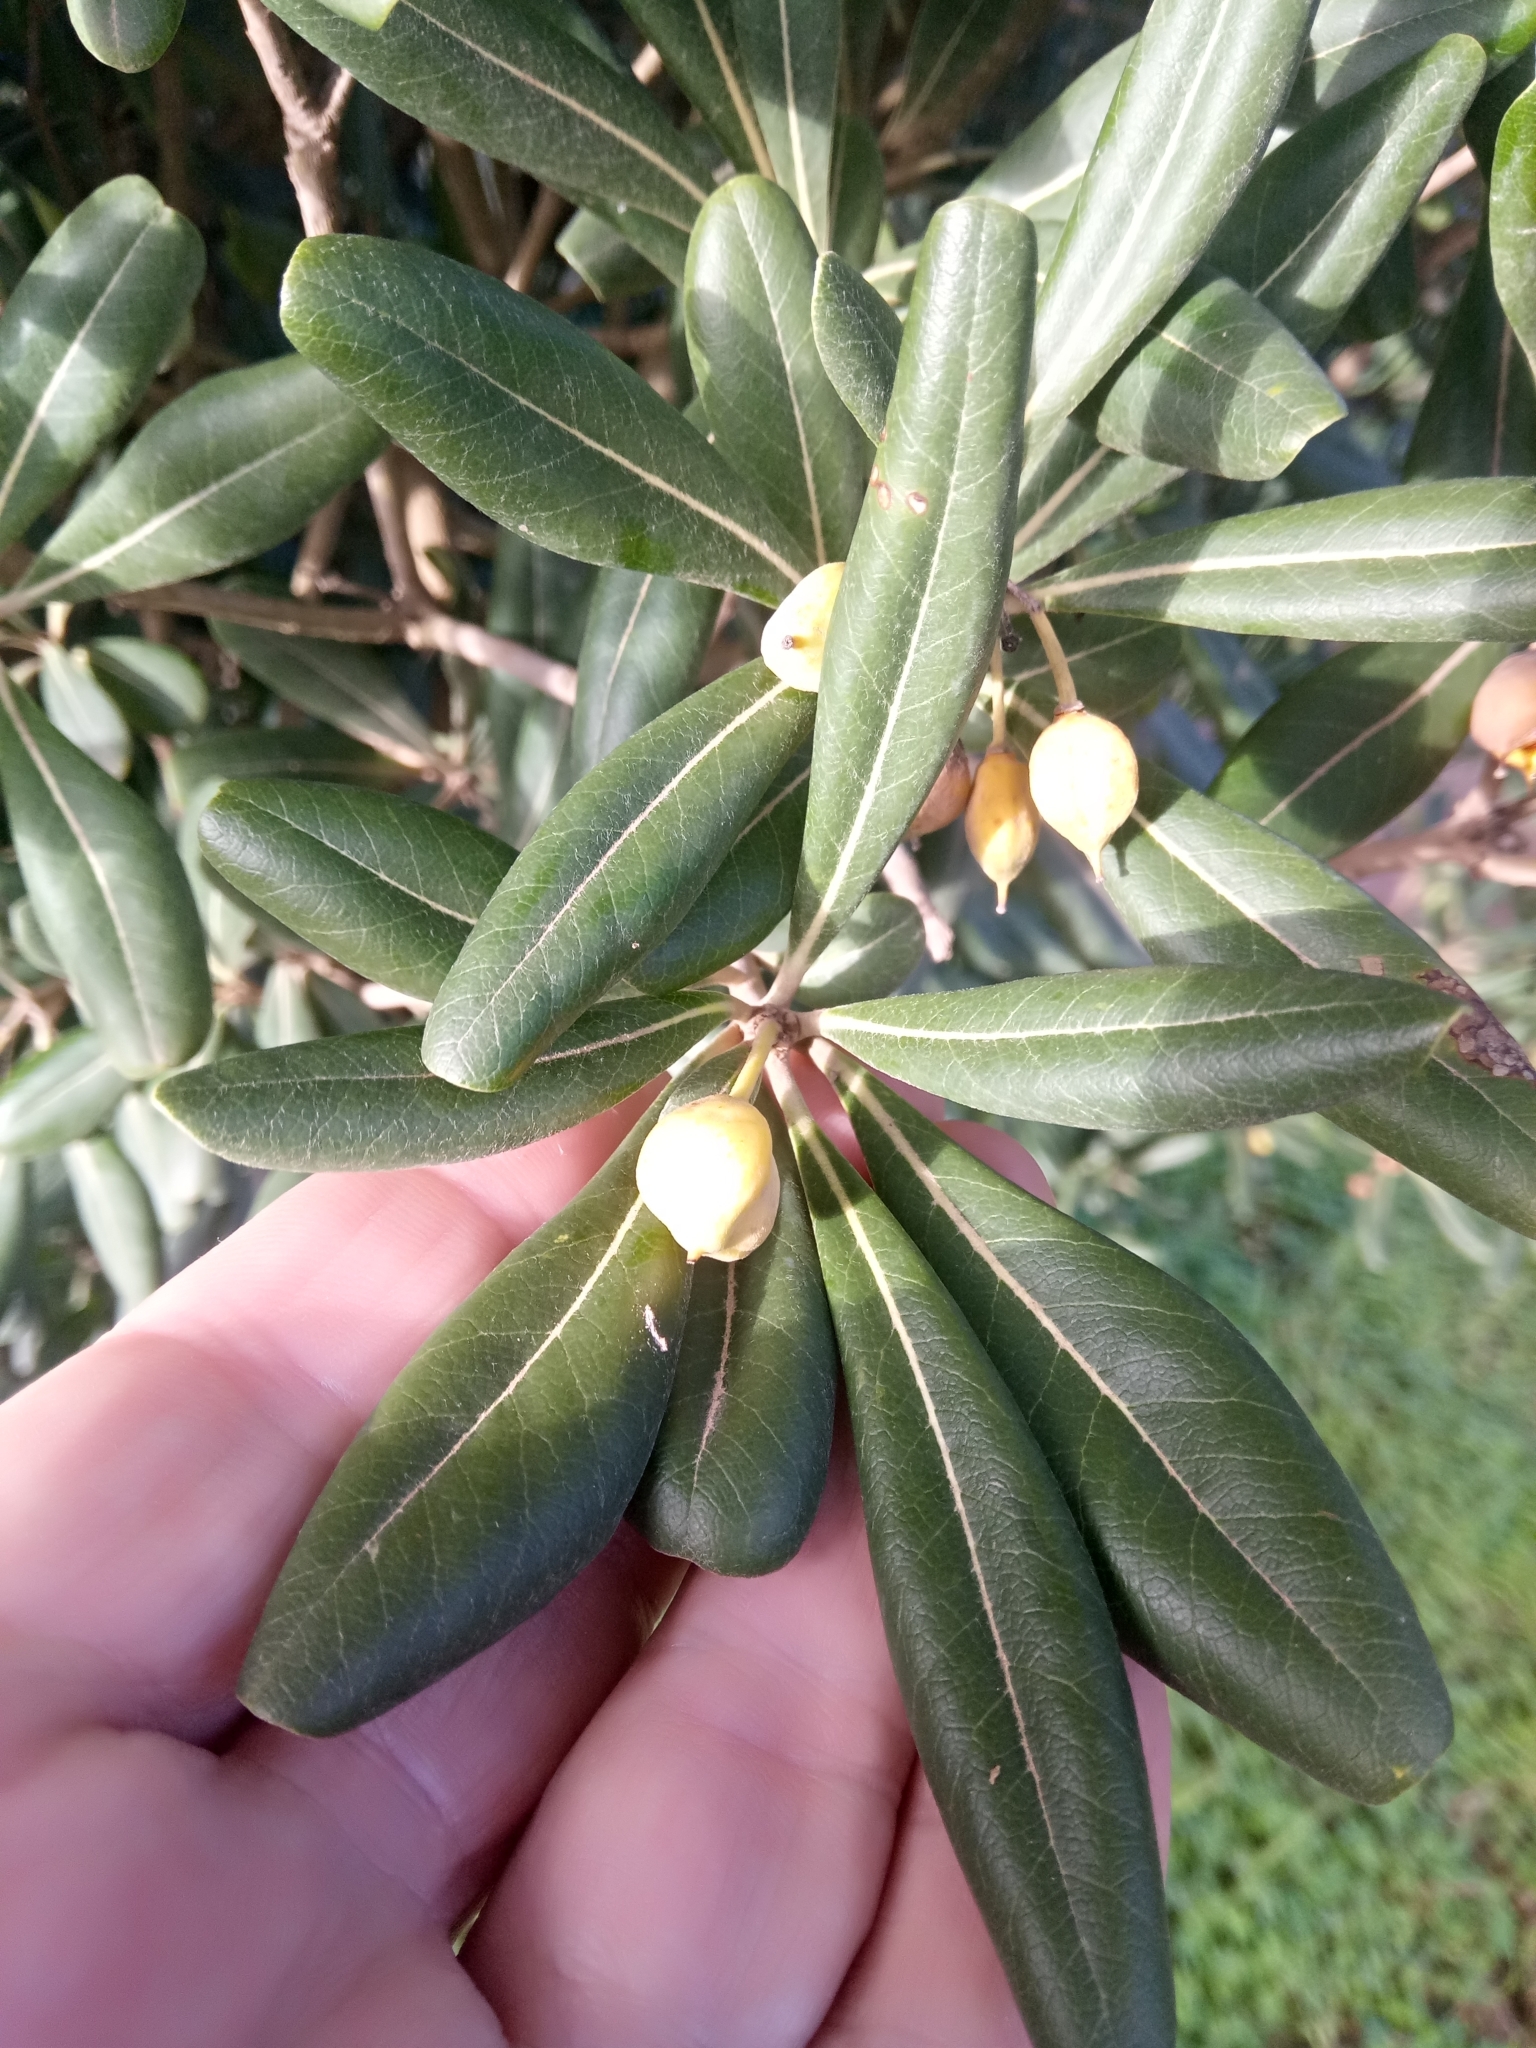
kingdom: Plantae
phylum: Tracheophyta
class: Magnoliopsida
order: Apiales
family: Pittosporaceae
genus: Pittosporum
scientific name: Pittosporum tobira
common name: Japanese cheesewood
